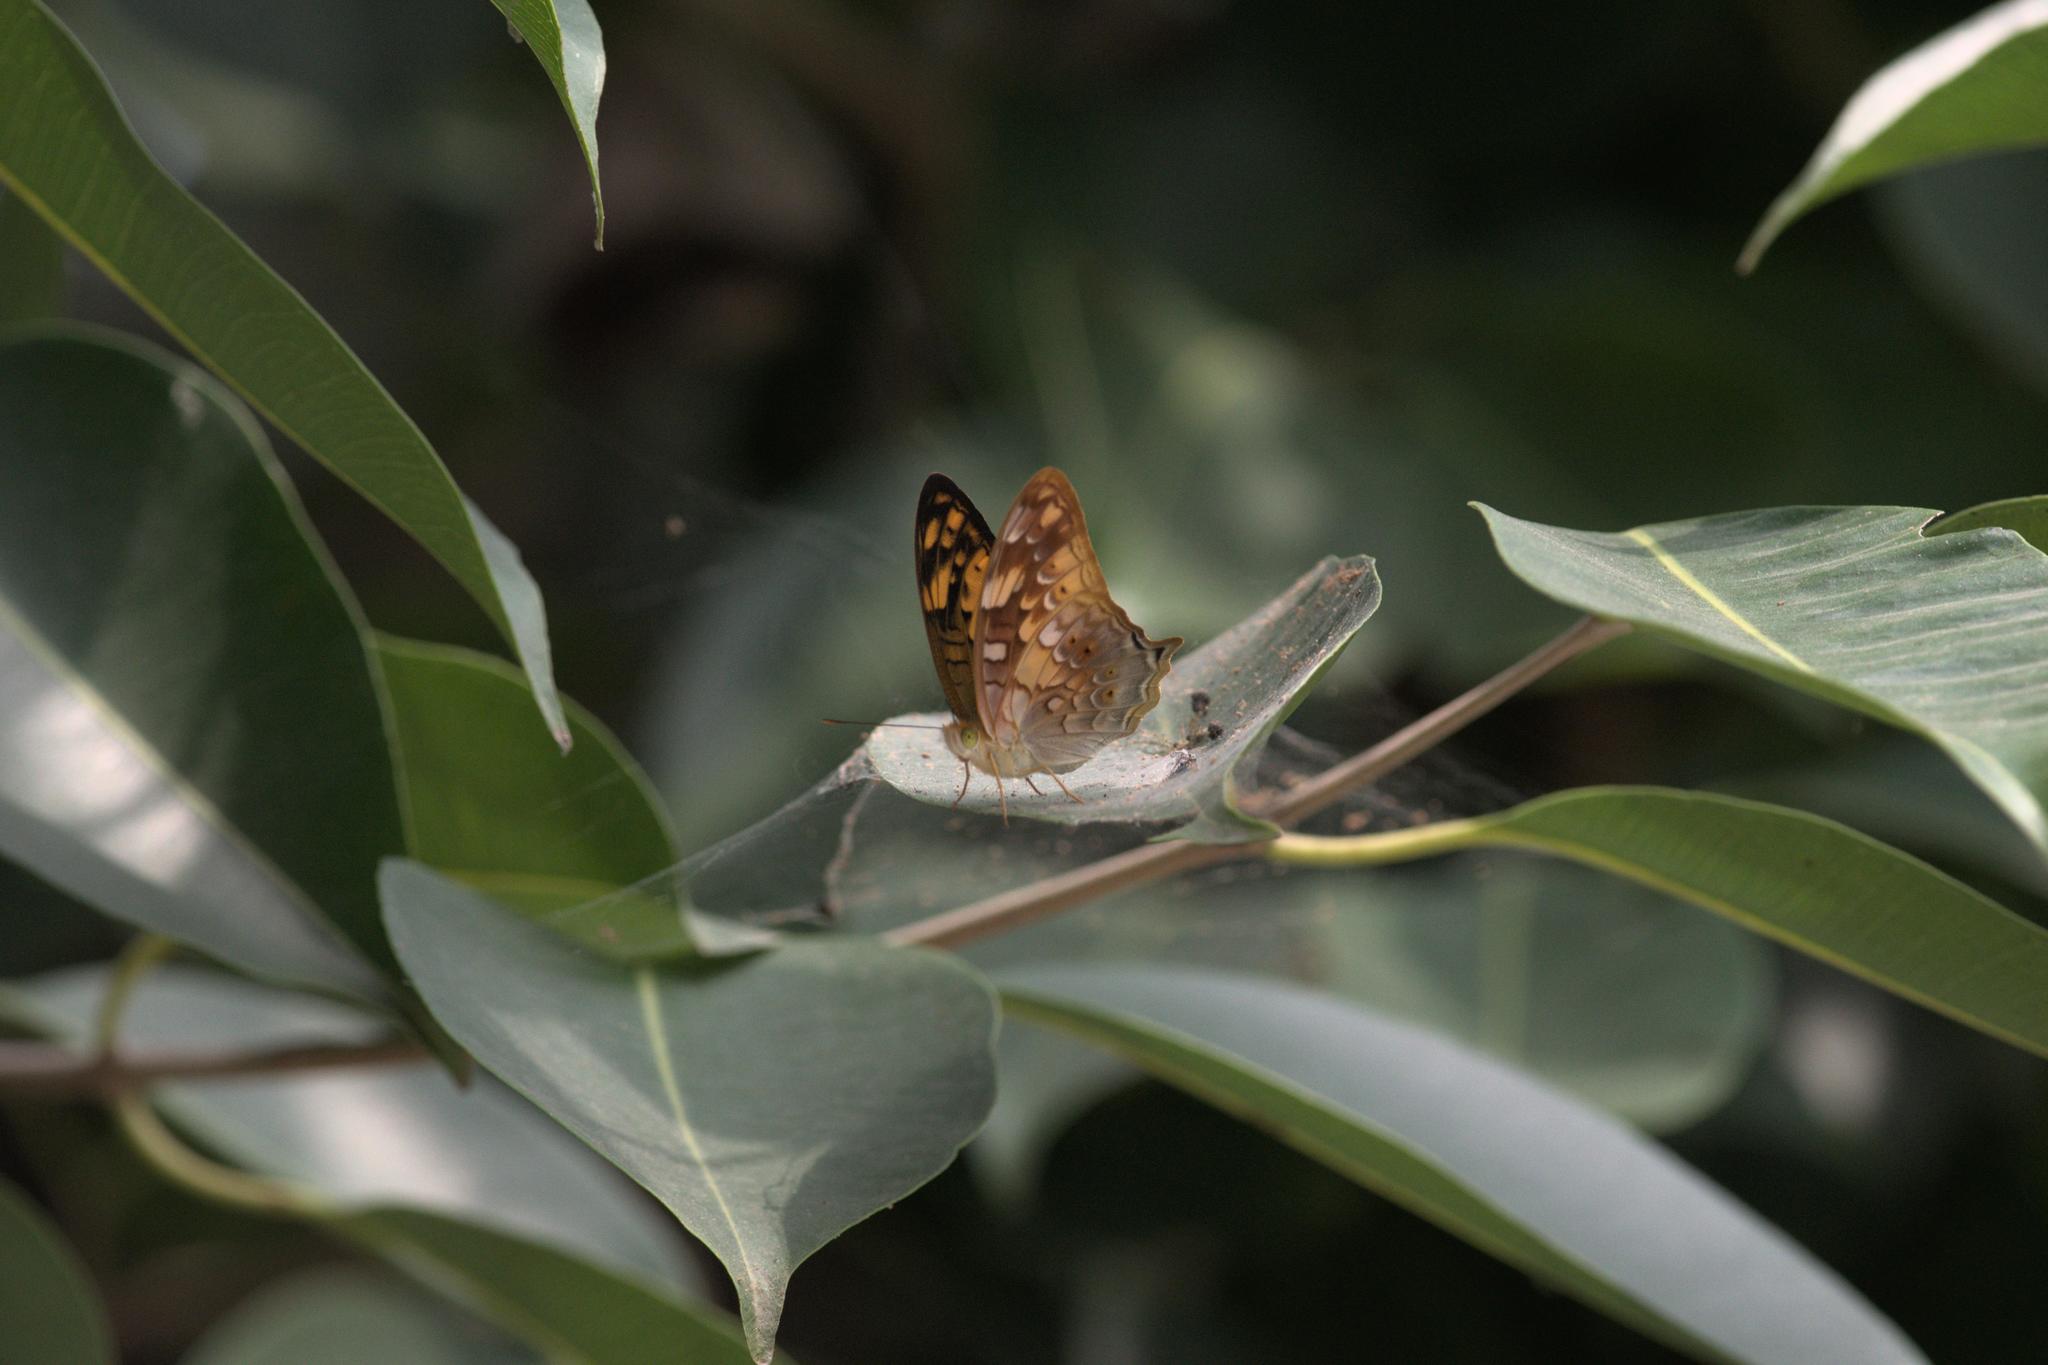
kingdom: Animalia
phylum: Arthropoda
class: Insecta
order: Lepidoptera
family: Nymphalidae
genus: Vagrans
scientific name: Vagrans egista
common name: Tailed rustic
